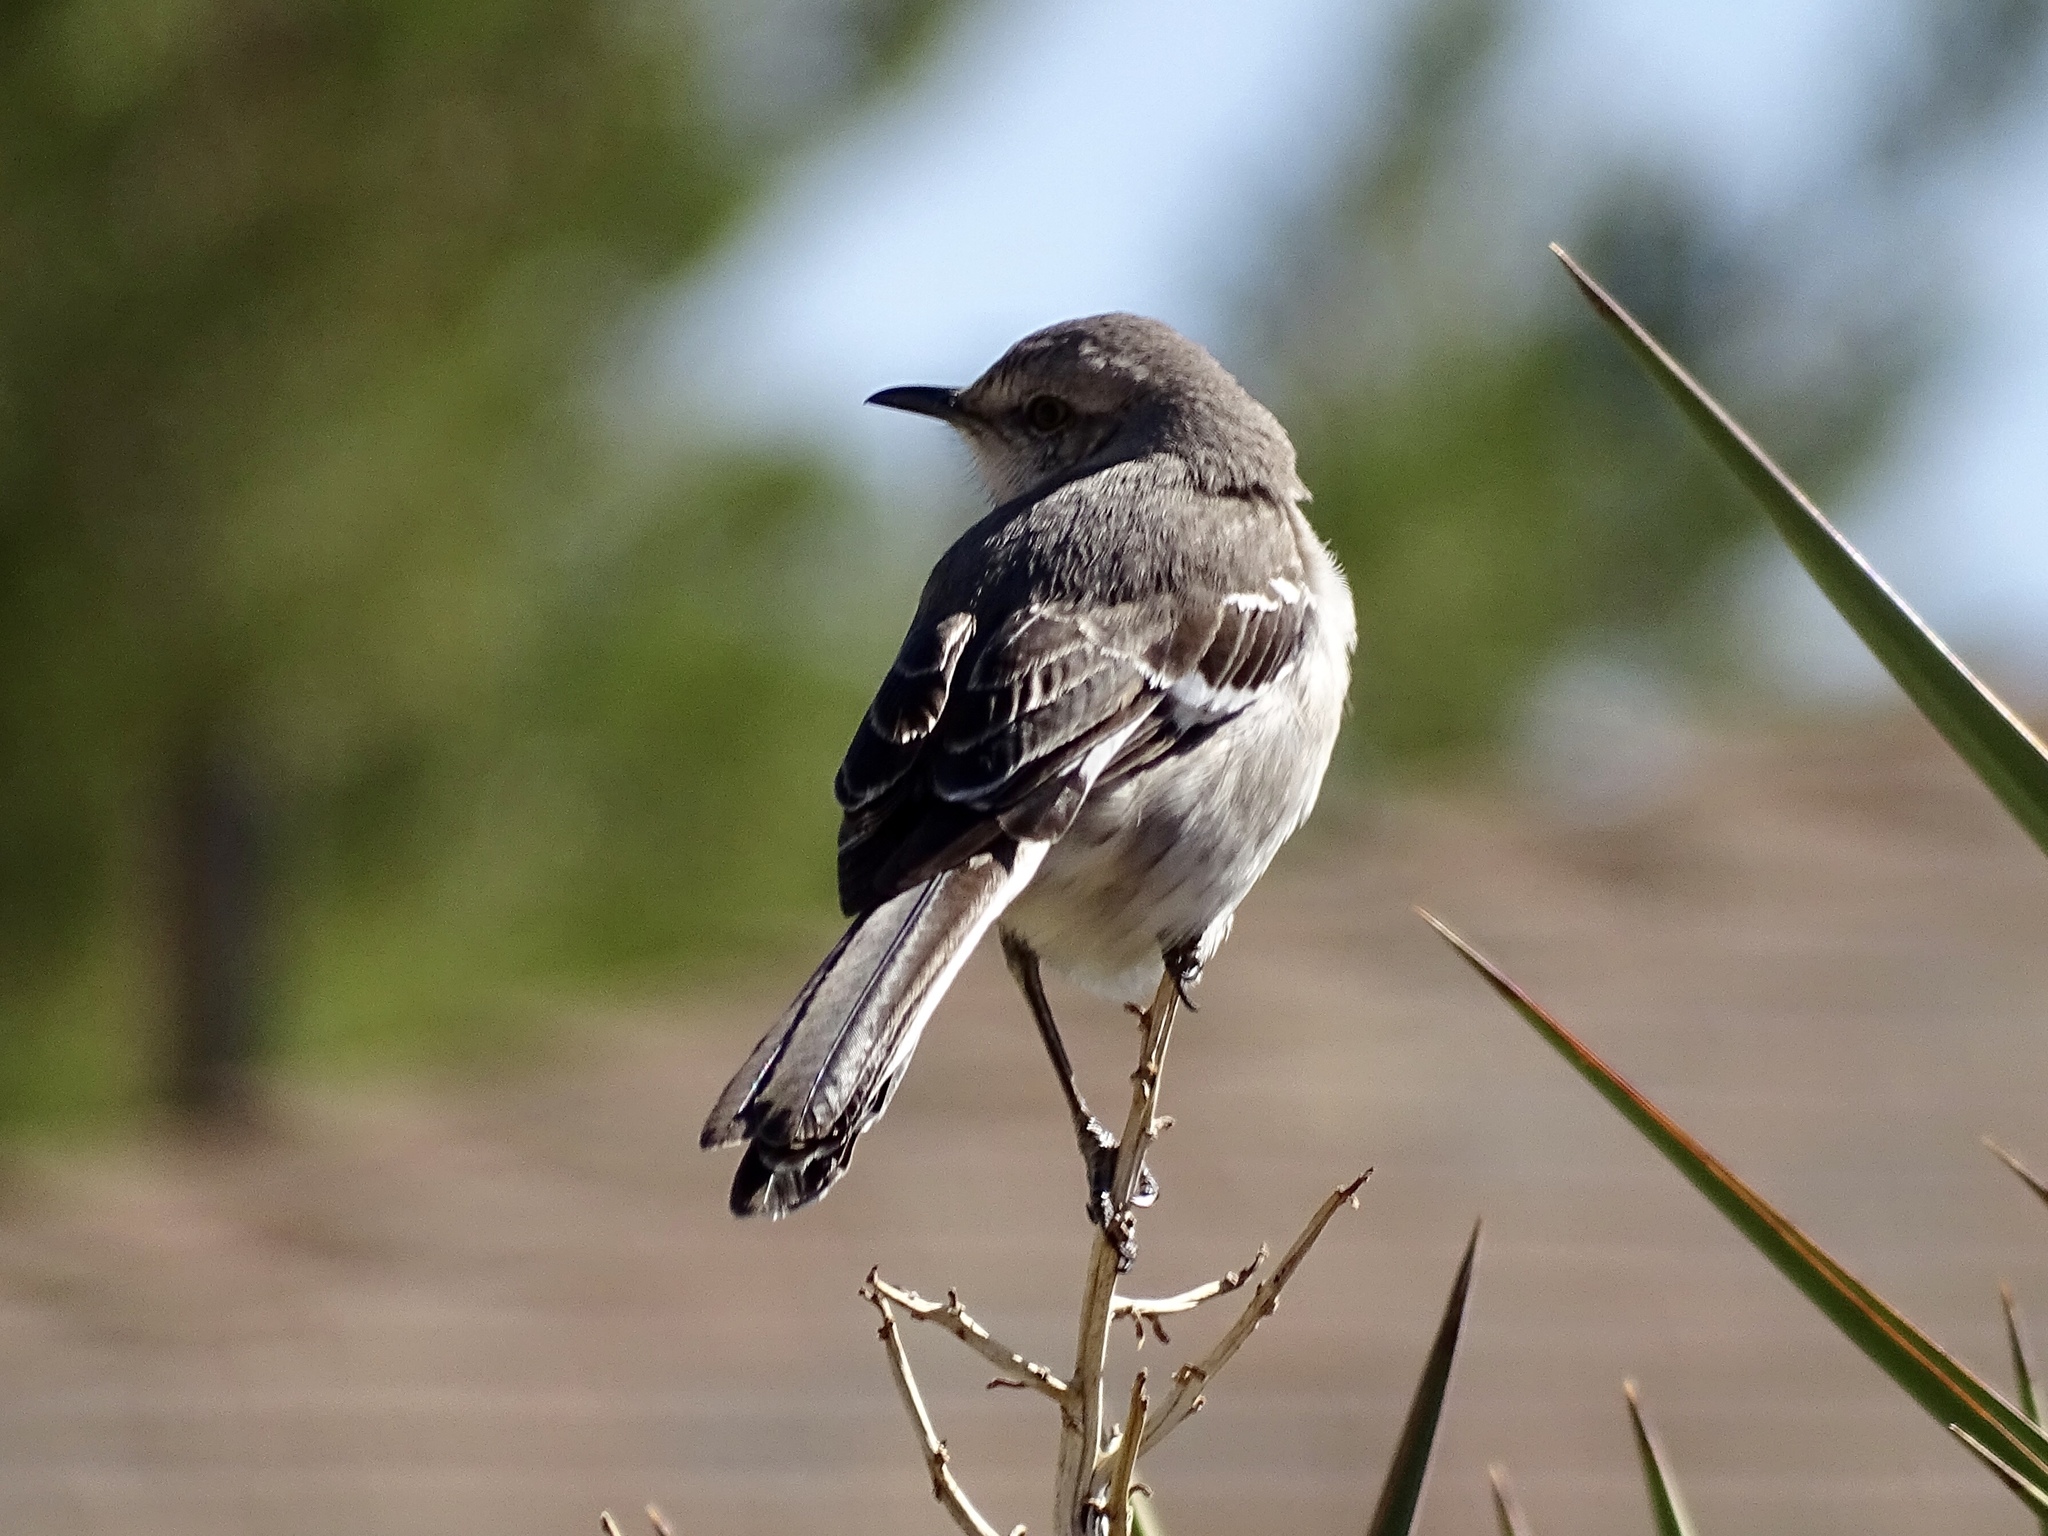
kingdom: Animalia
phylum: Chordata
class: Aves
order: Passeriformes
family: Mimidae
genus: Mimus
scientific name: Mimus polyglottos
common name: Northern mockingbird
